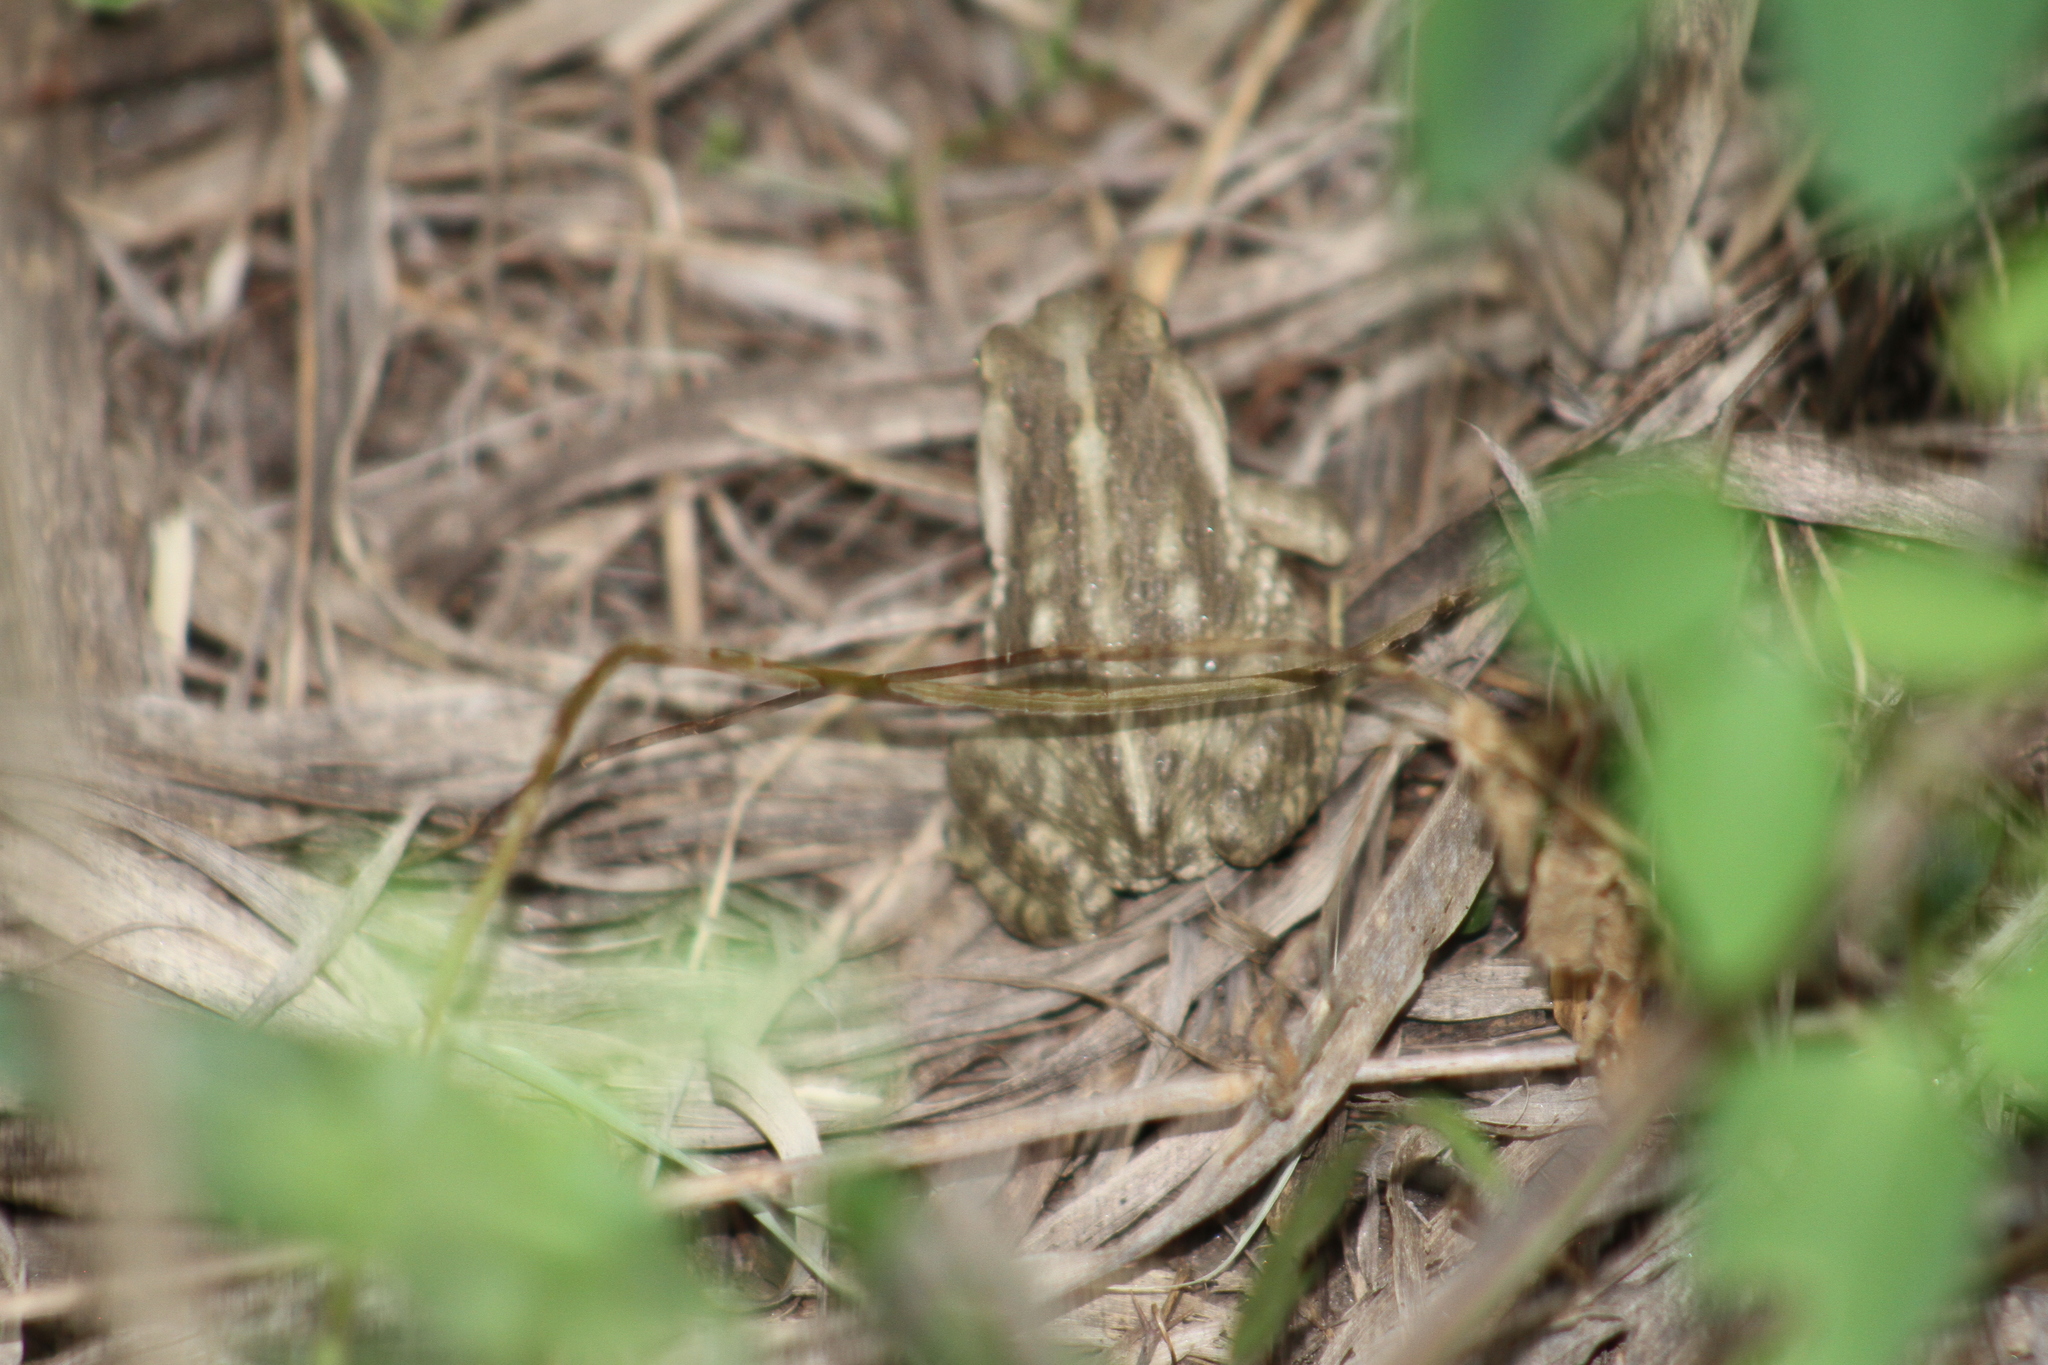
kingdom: Animalia
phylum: Chordata
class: Amphibia
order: Anura
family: Bufonidae
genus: Rhinella
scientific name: Rhinella arenarum
